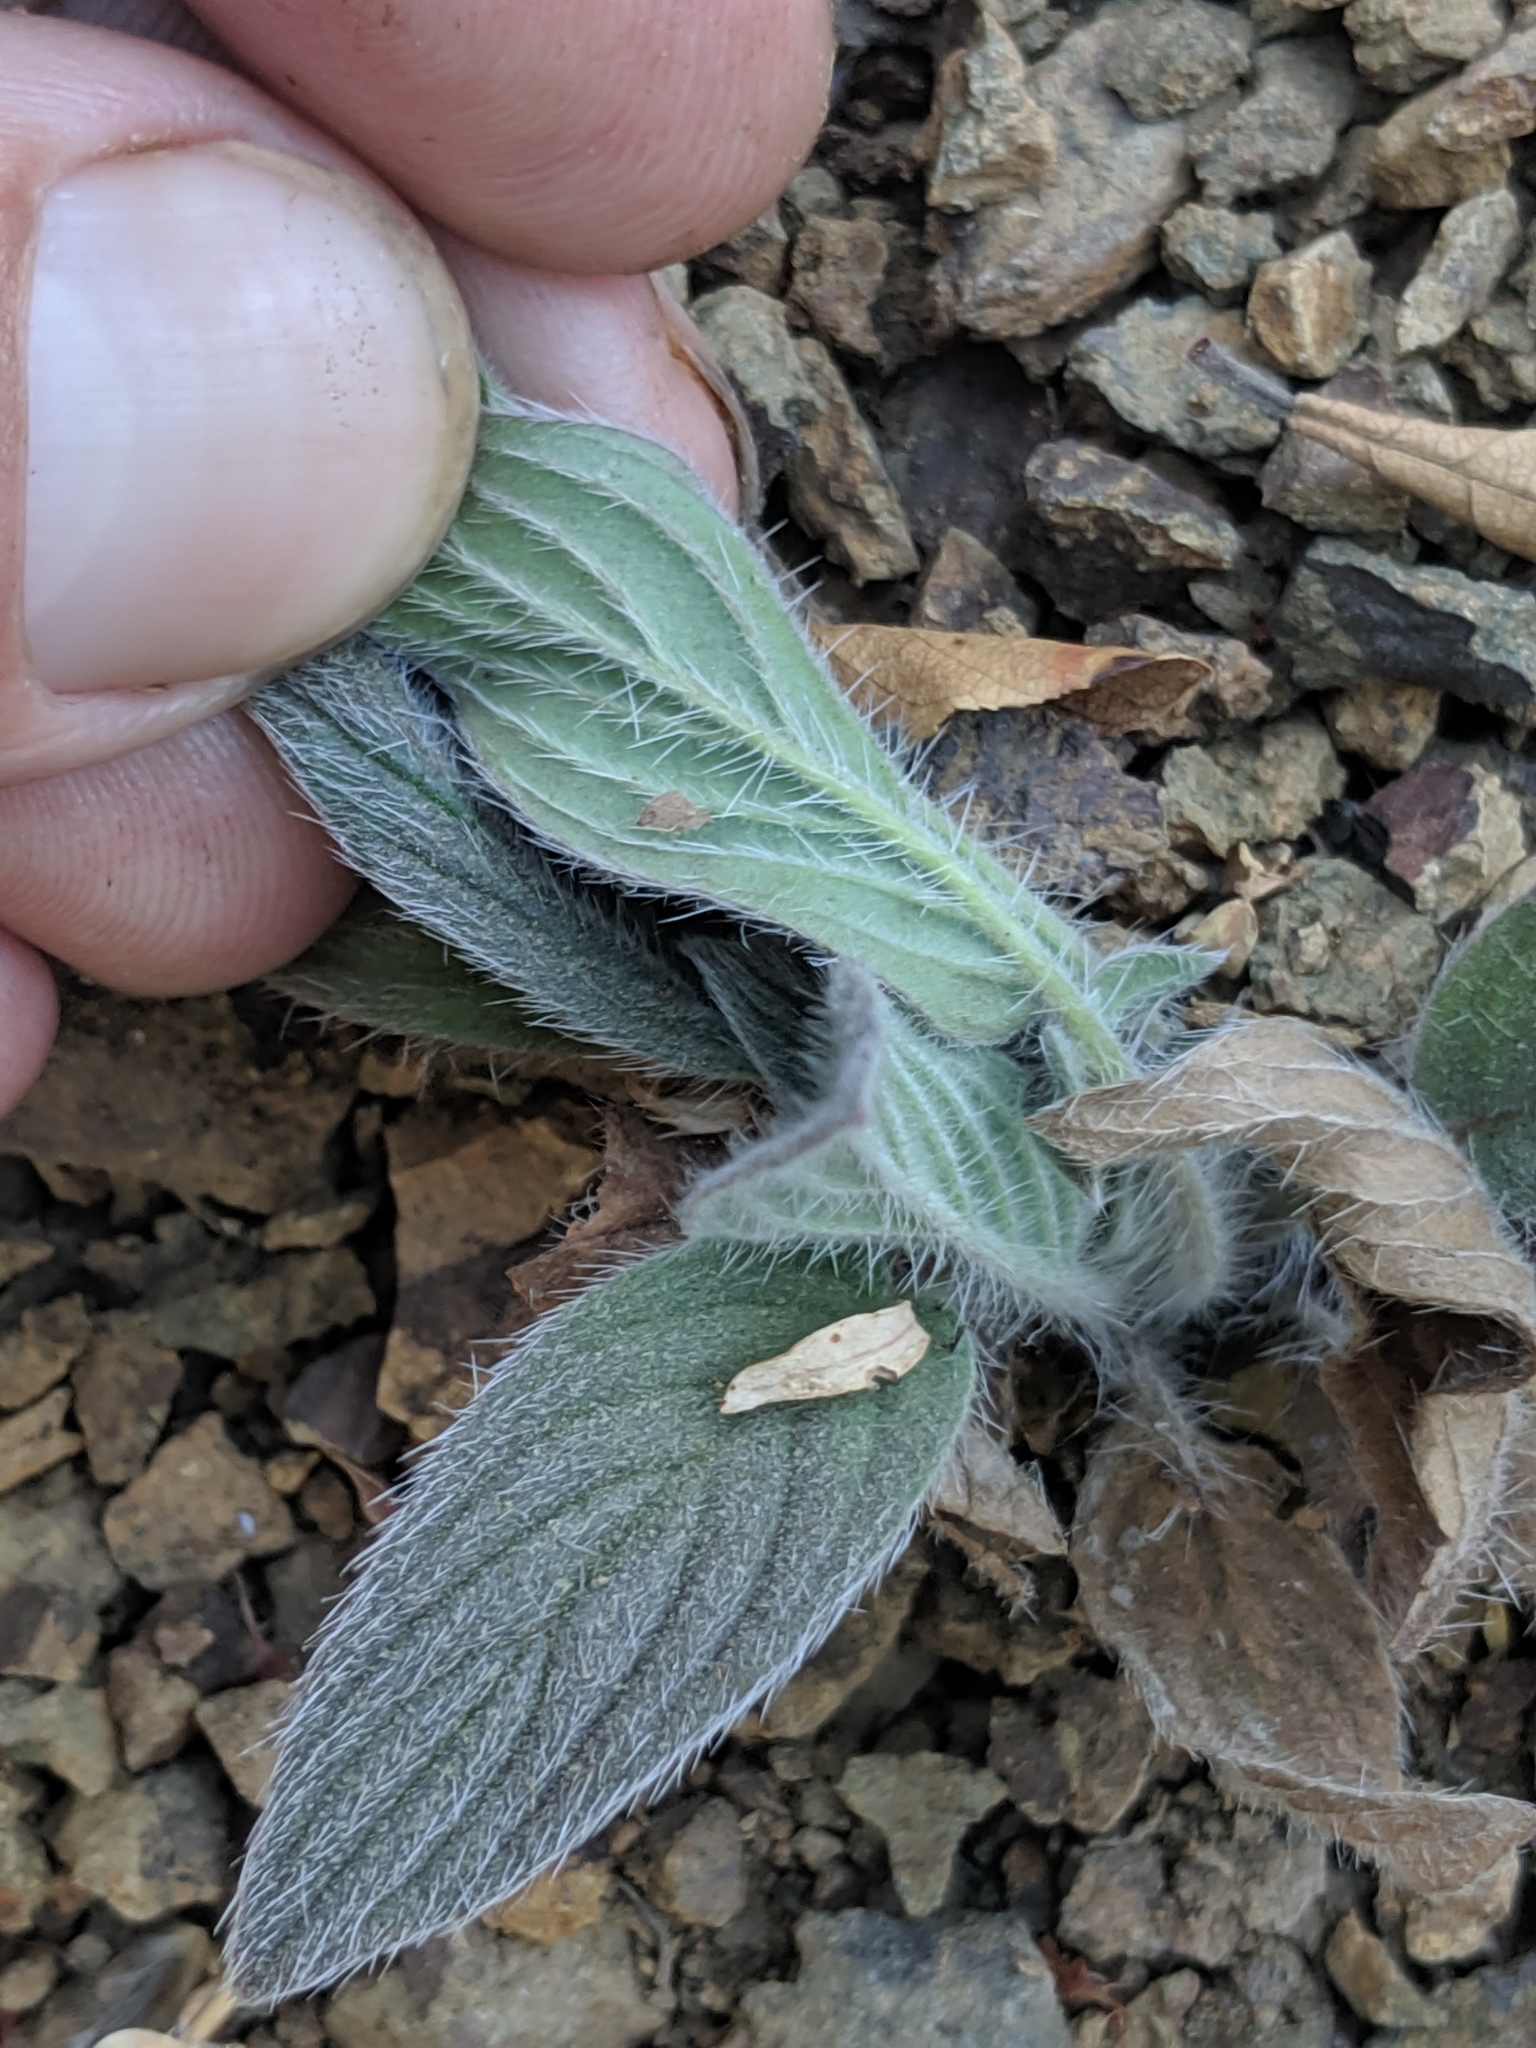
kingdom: Plantae
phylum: Tracheophyta
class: Magnoliopsida
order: Boraginales
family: Hydrophyllaceae
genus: Phacelia
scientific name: Phacelia imbricata
